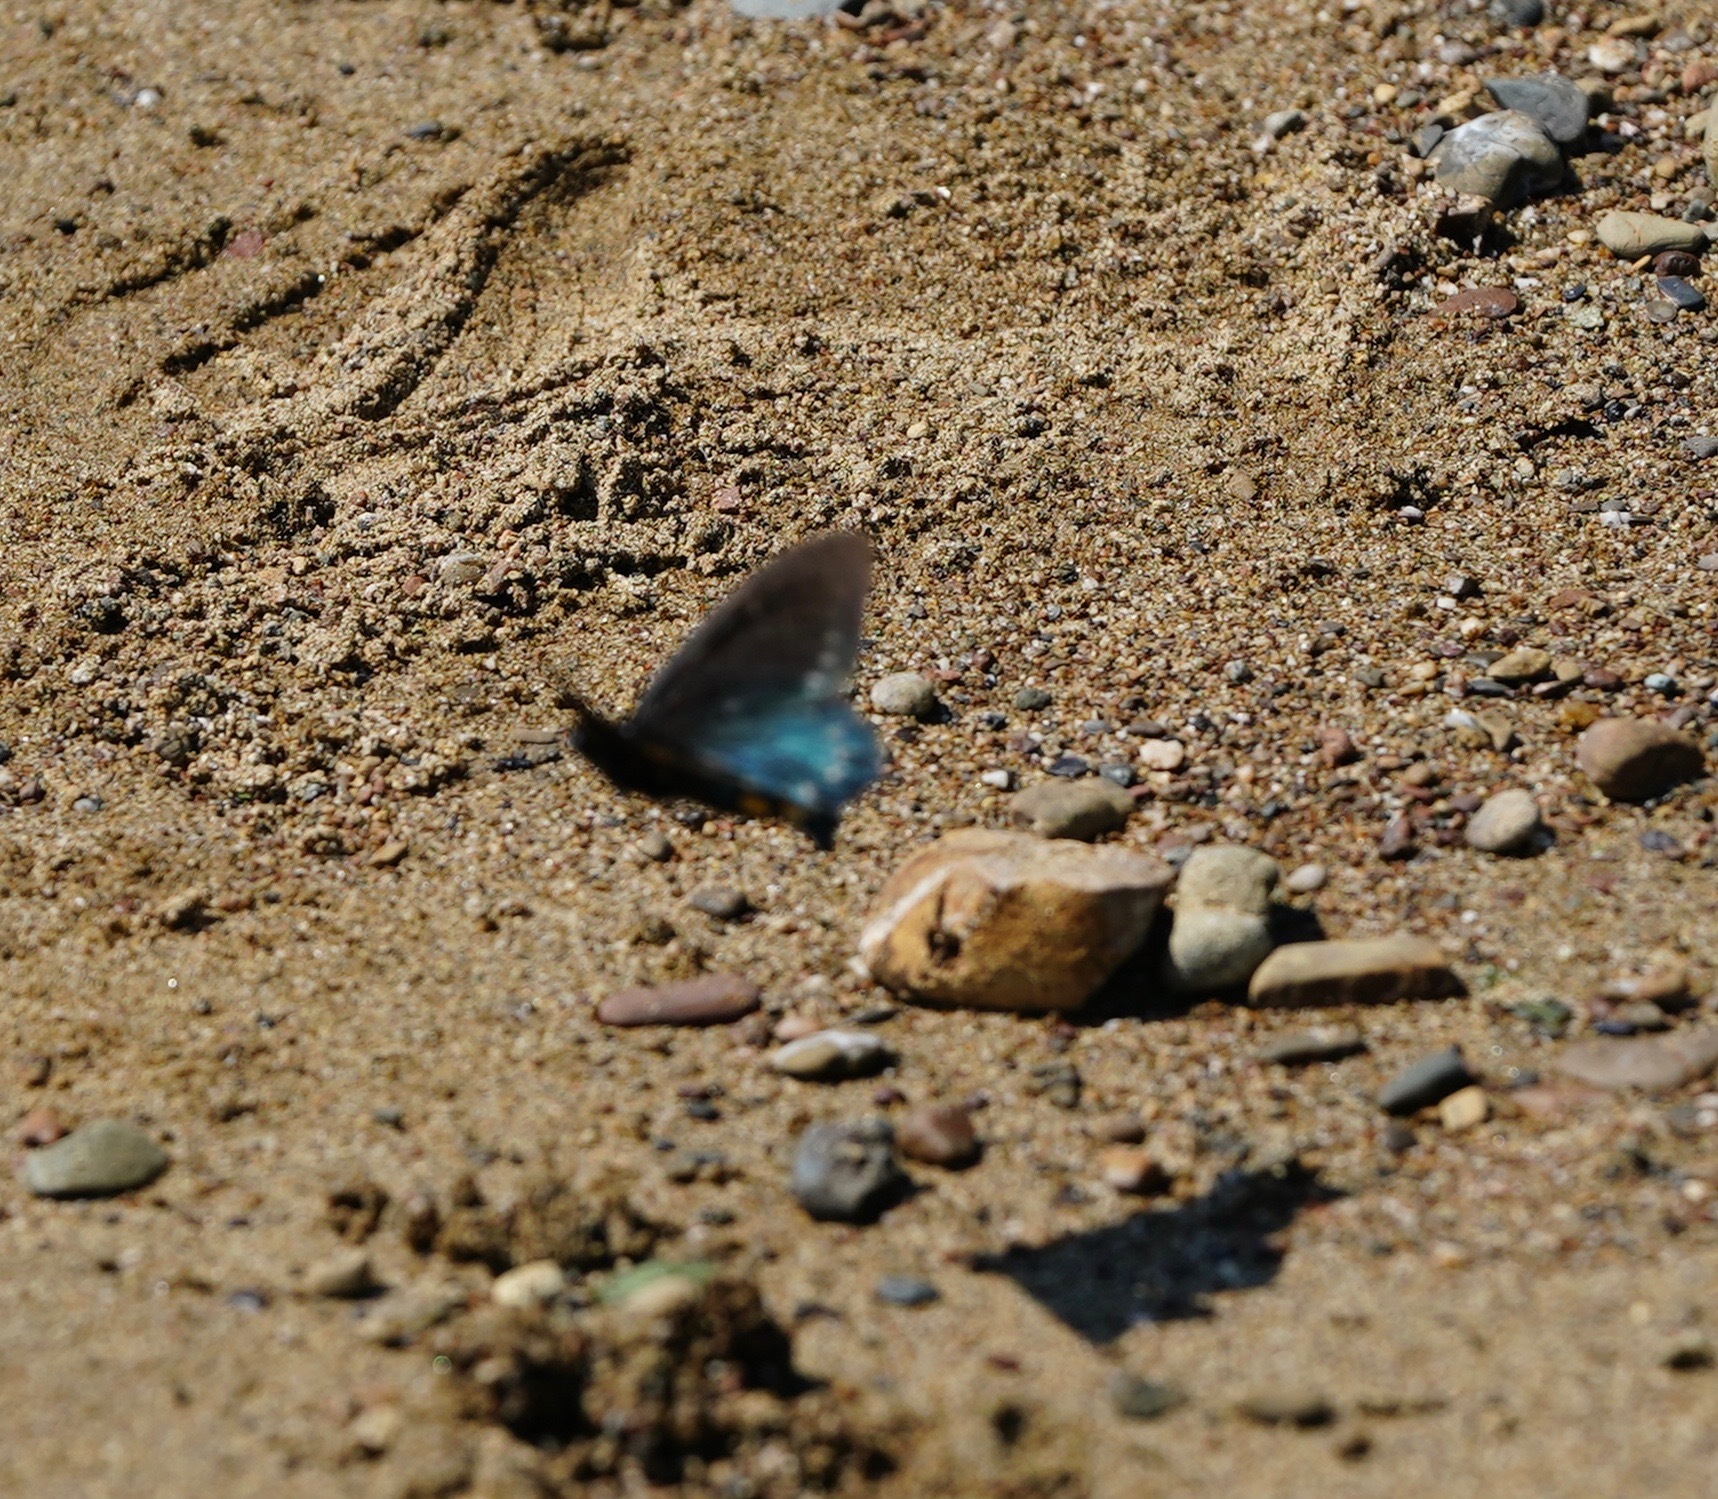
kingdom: Animalia
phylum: Arthropoda
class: Insecta
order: Lepidoptera
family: Papilionidae
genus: Battus
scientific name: Battus philenor
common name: Pipevine swallowtail
